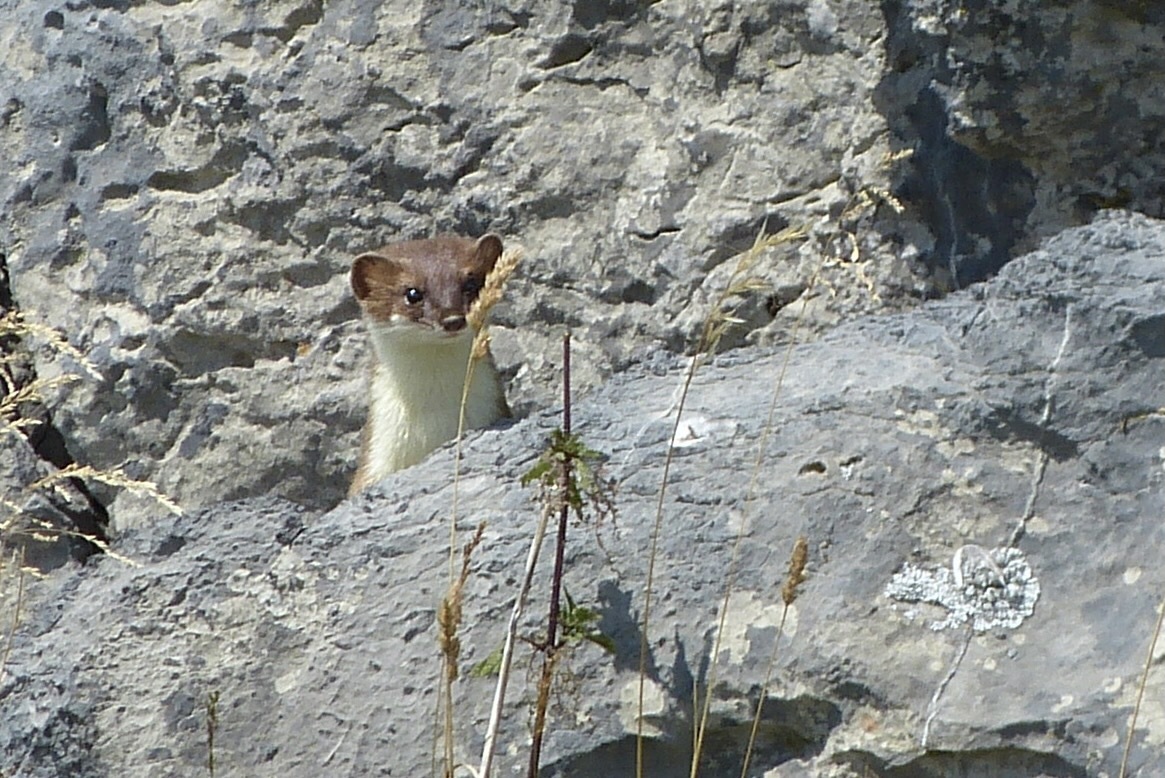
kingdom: Animalia
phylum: Chordata
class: Mammalia
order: Carnivora
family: Mustelidae
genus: Mustela
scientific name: Mustela erminea
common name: Stoat
